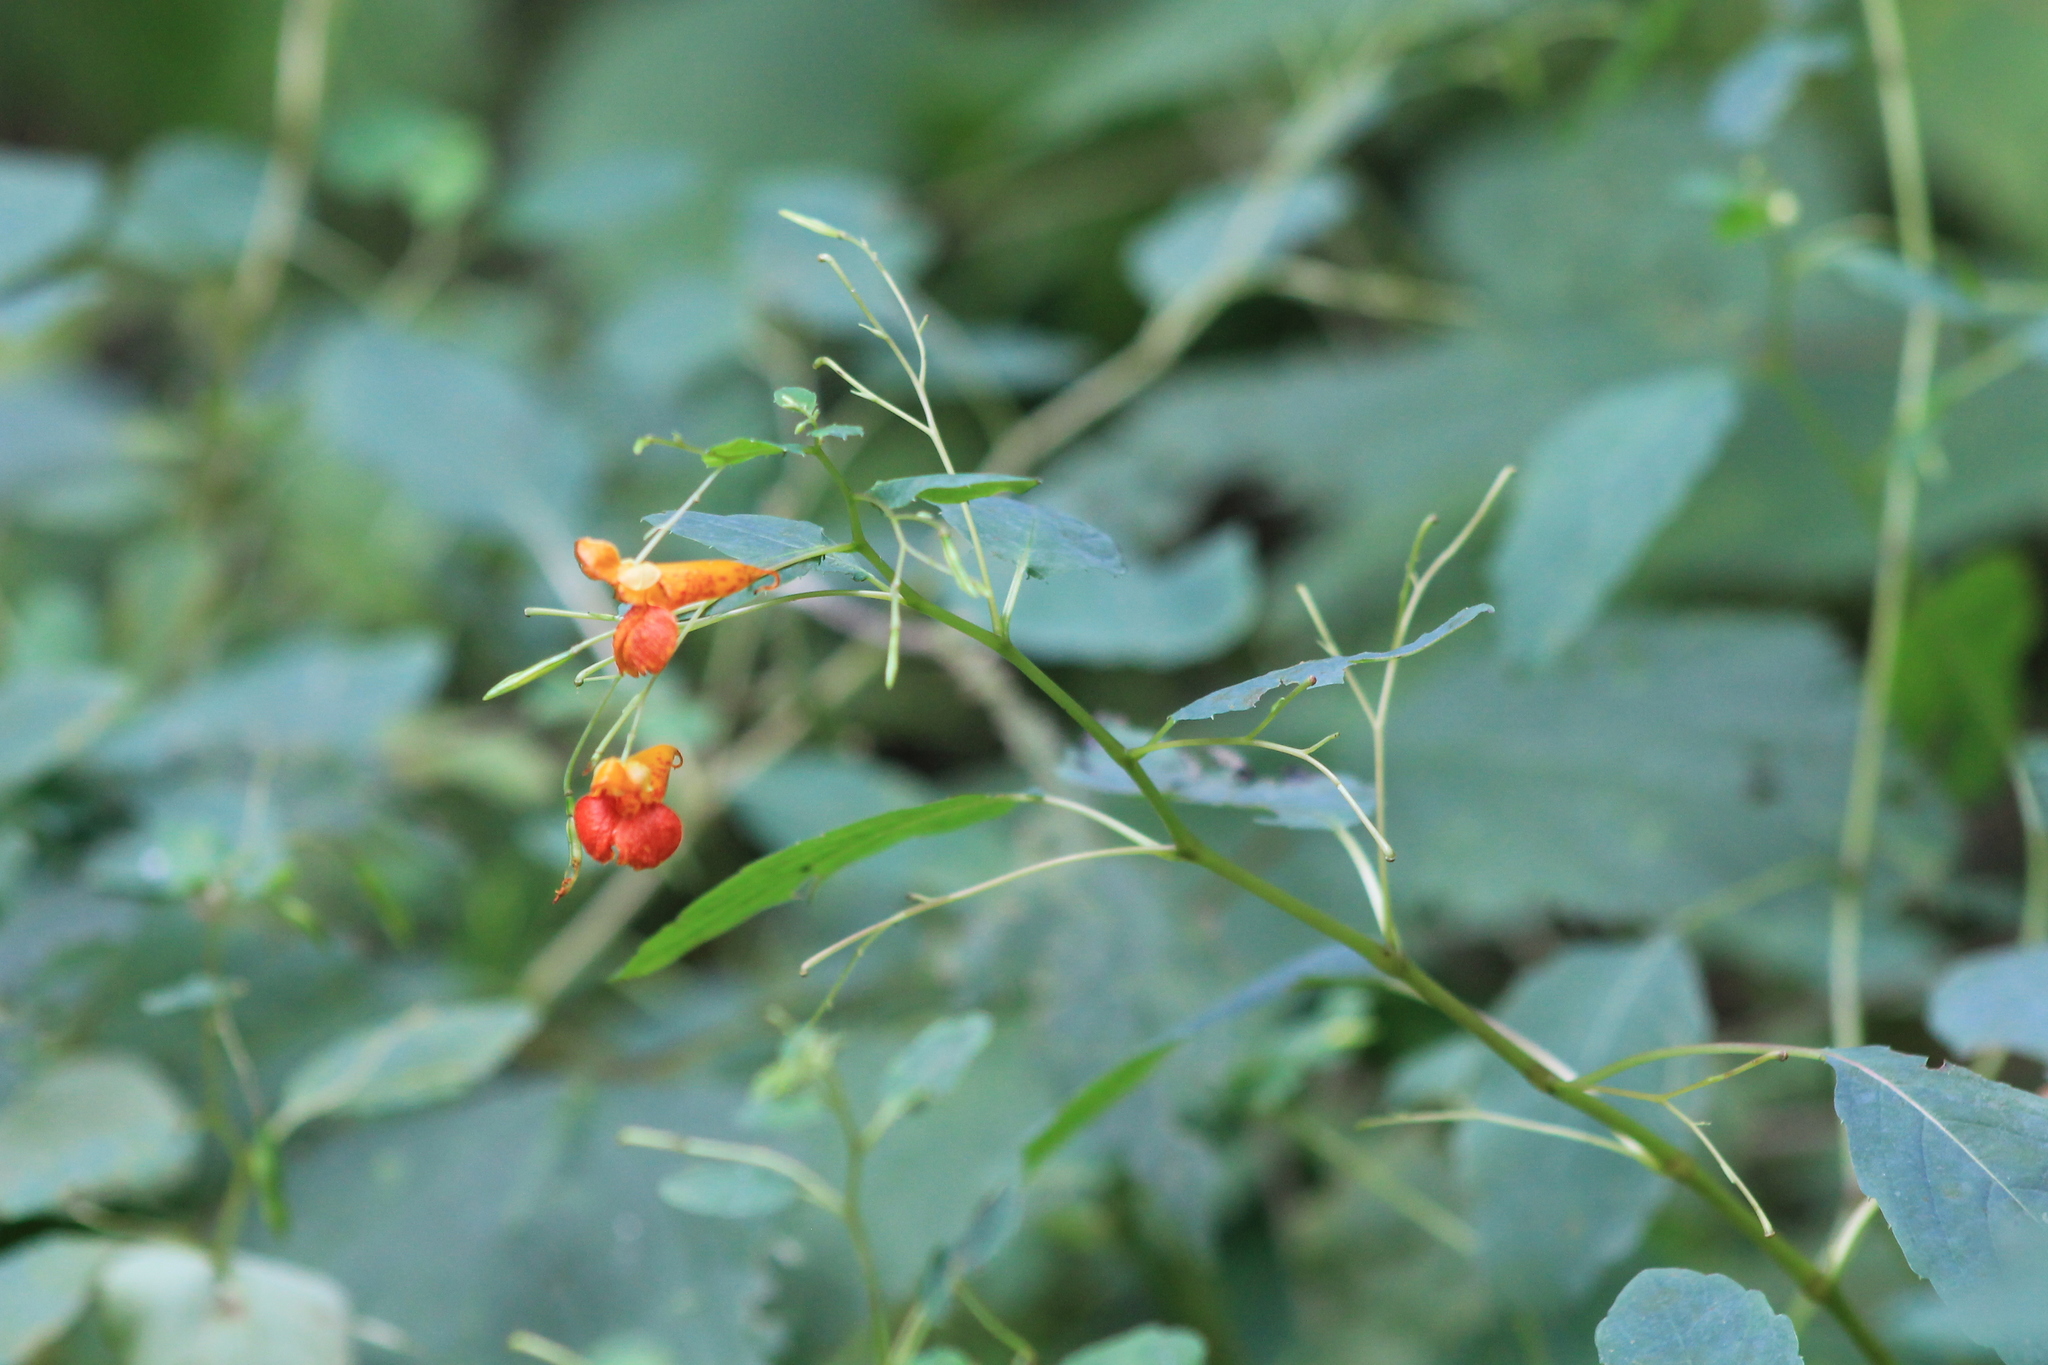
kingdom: Plantae
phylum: Tracheophyta
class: Magnoliopsida
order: Ericales
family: Balsaminaceae
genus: Impatiens
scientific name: Impatiens capensis
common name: Orange balsam
